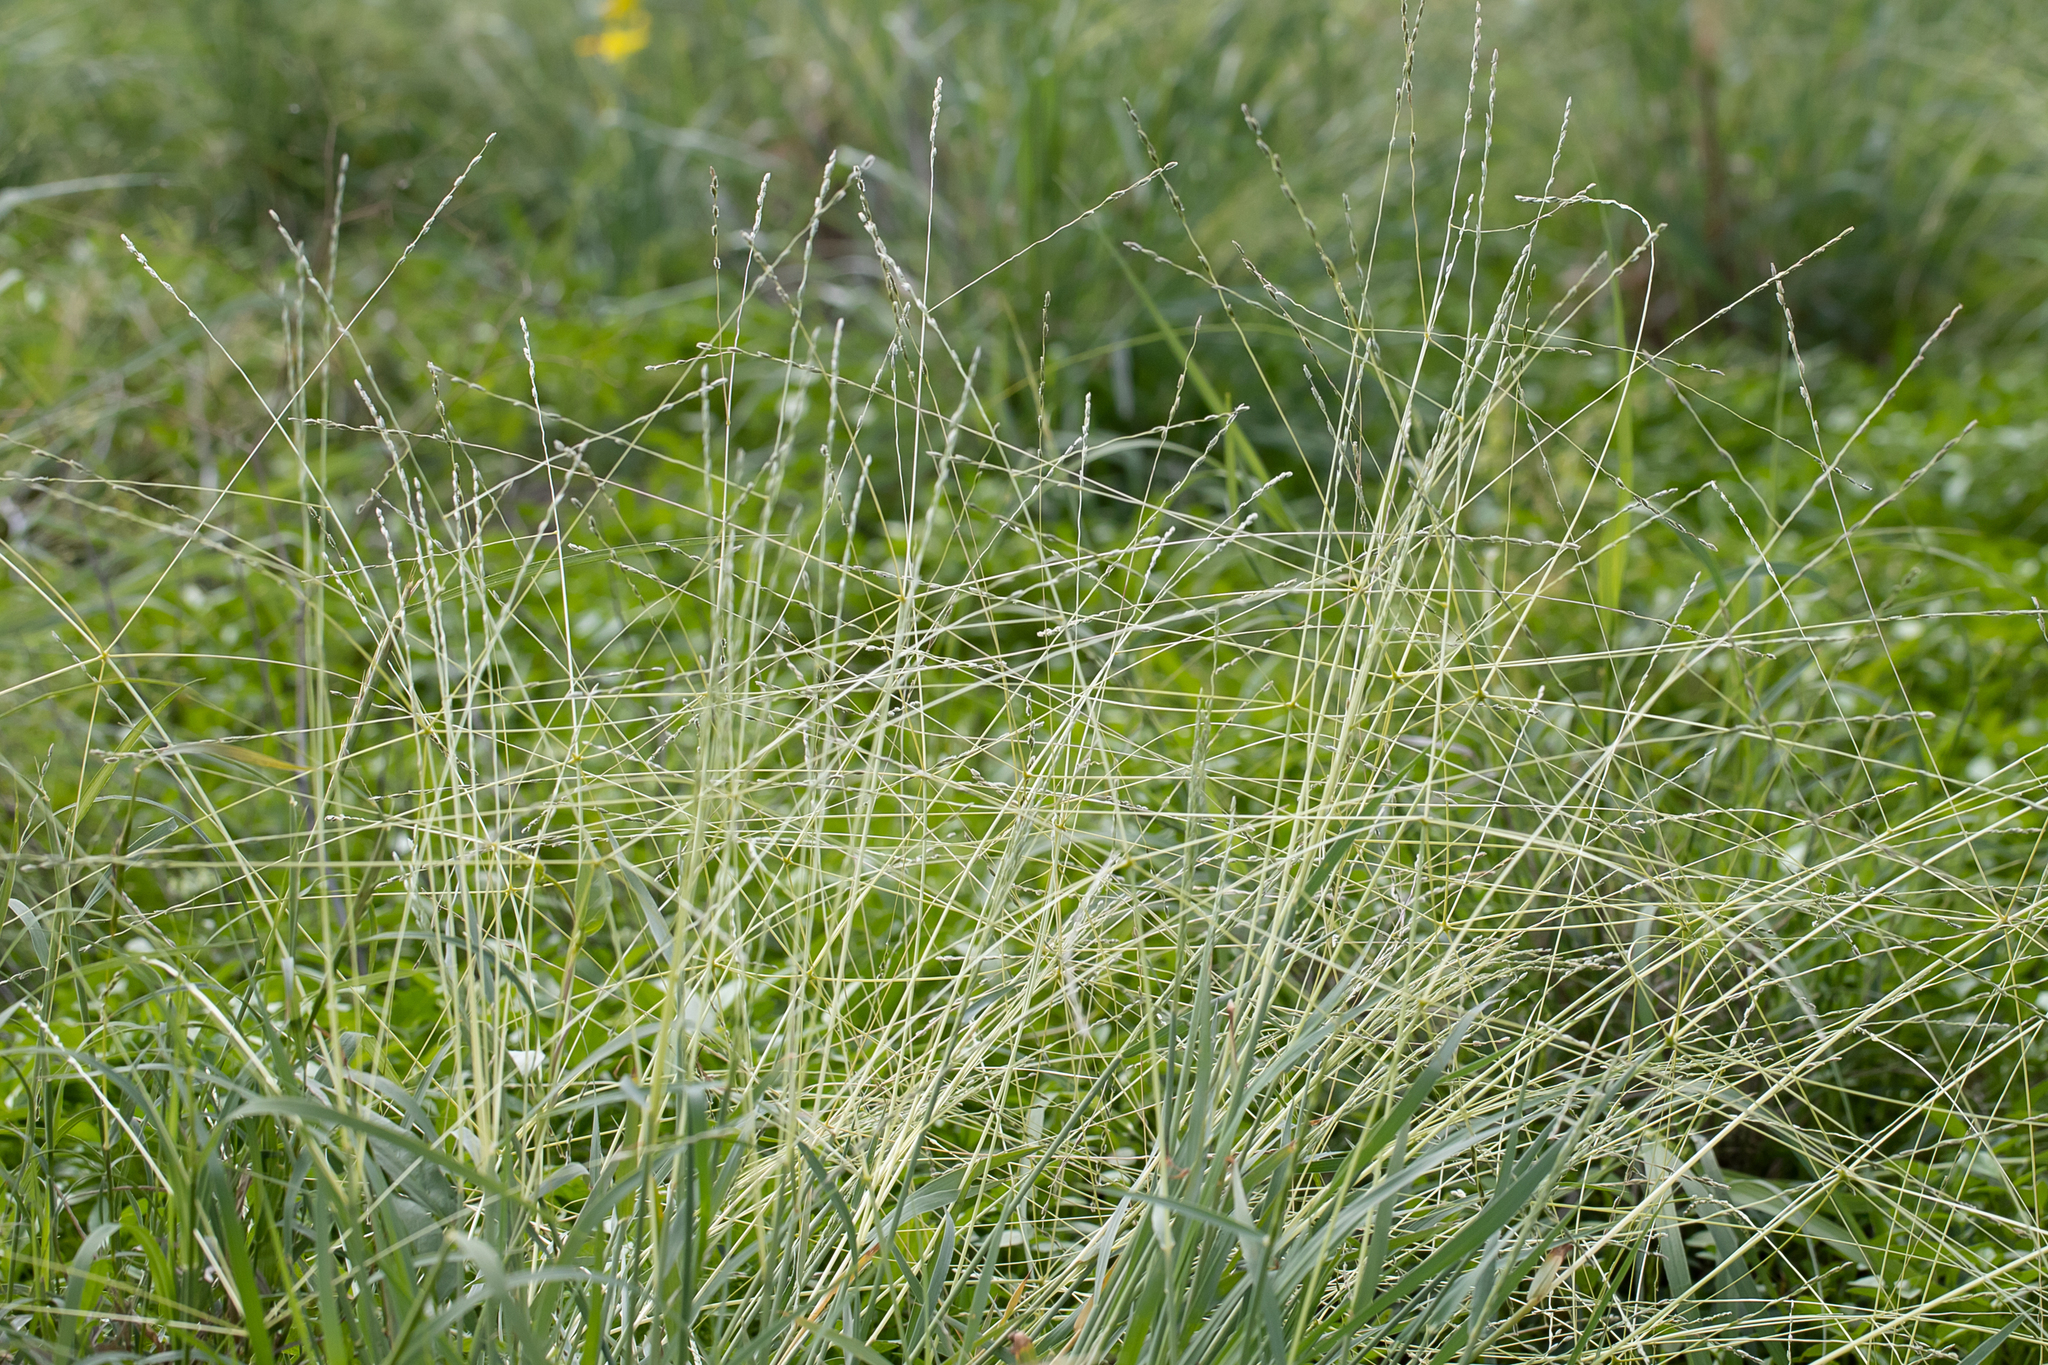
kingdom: Plantae
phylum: Tracheophyta
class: Liliopsida
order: Poales
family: Poaceae
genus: Digitaria
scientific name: Digitaria divaricatissima
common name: Crabgrass
